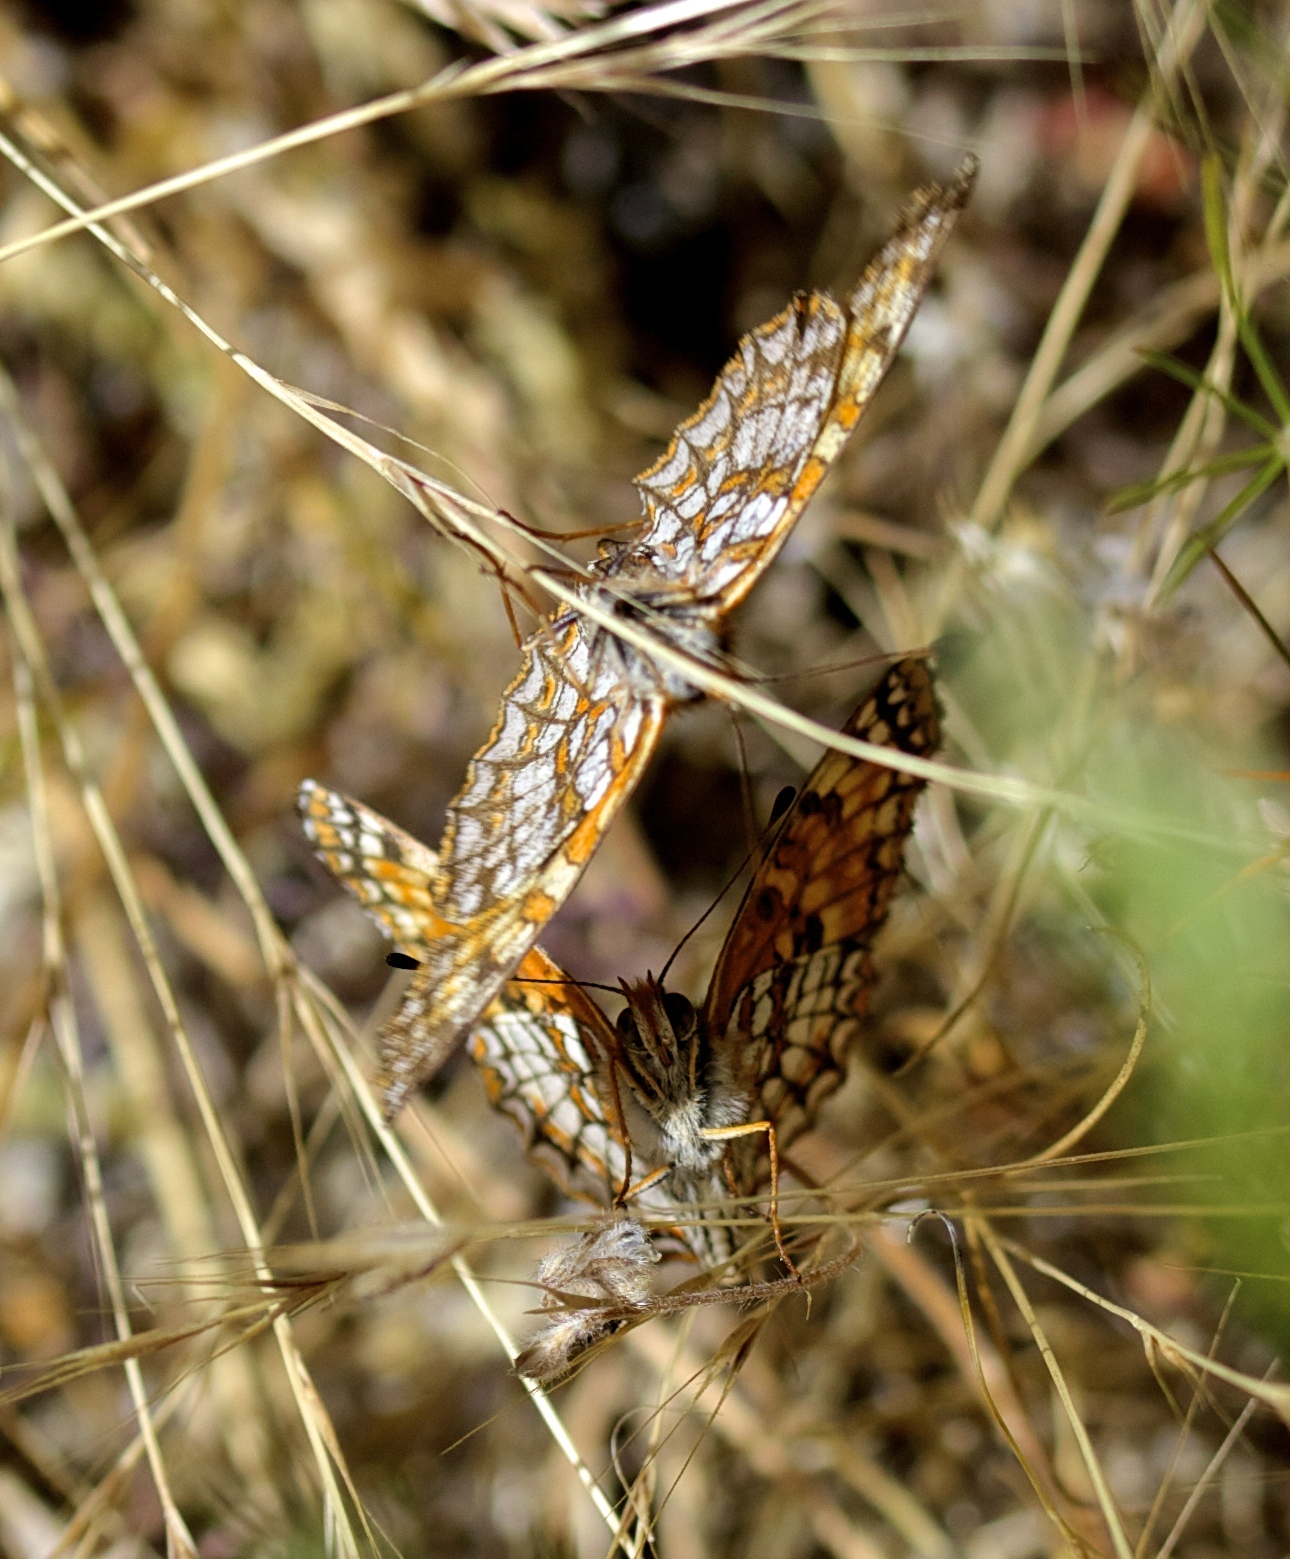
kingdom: Animalia
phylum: Arthropoda
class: Insecta
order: Lepidoptera
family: Nymphalidae
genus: Chlosyne
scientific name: Chlosyne gabbii
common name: Gabb's checkerspot
